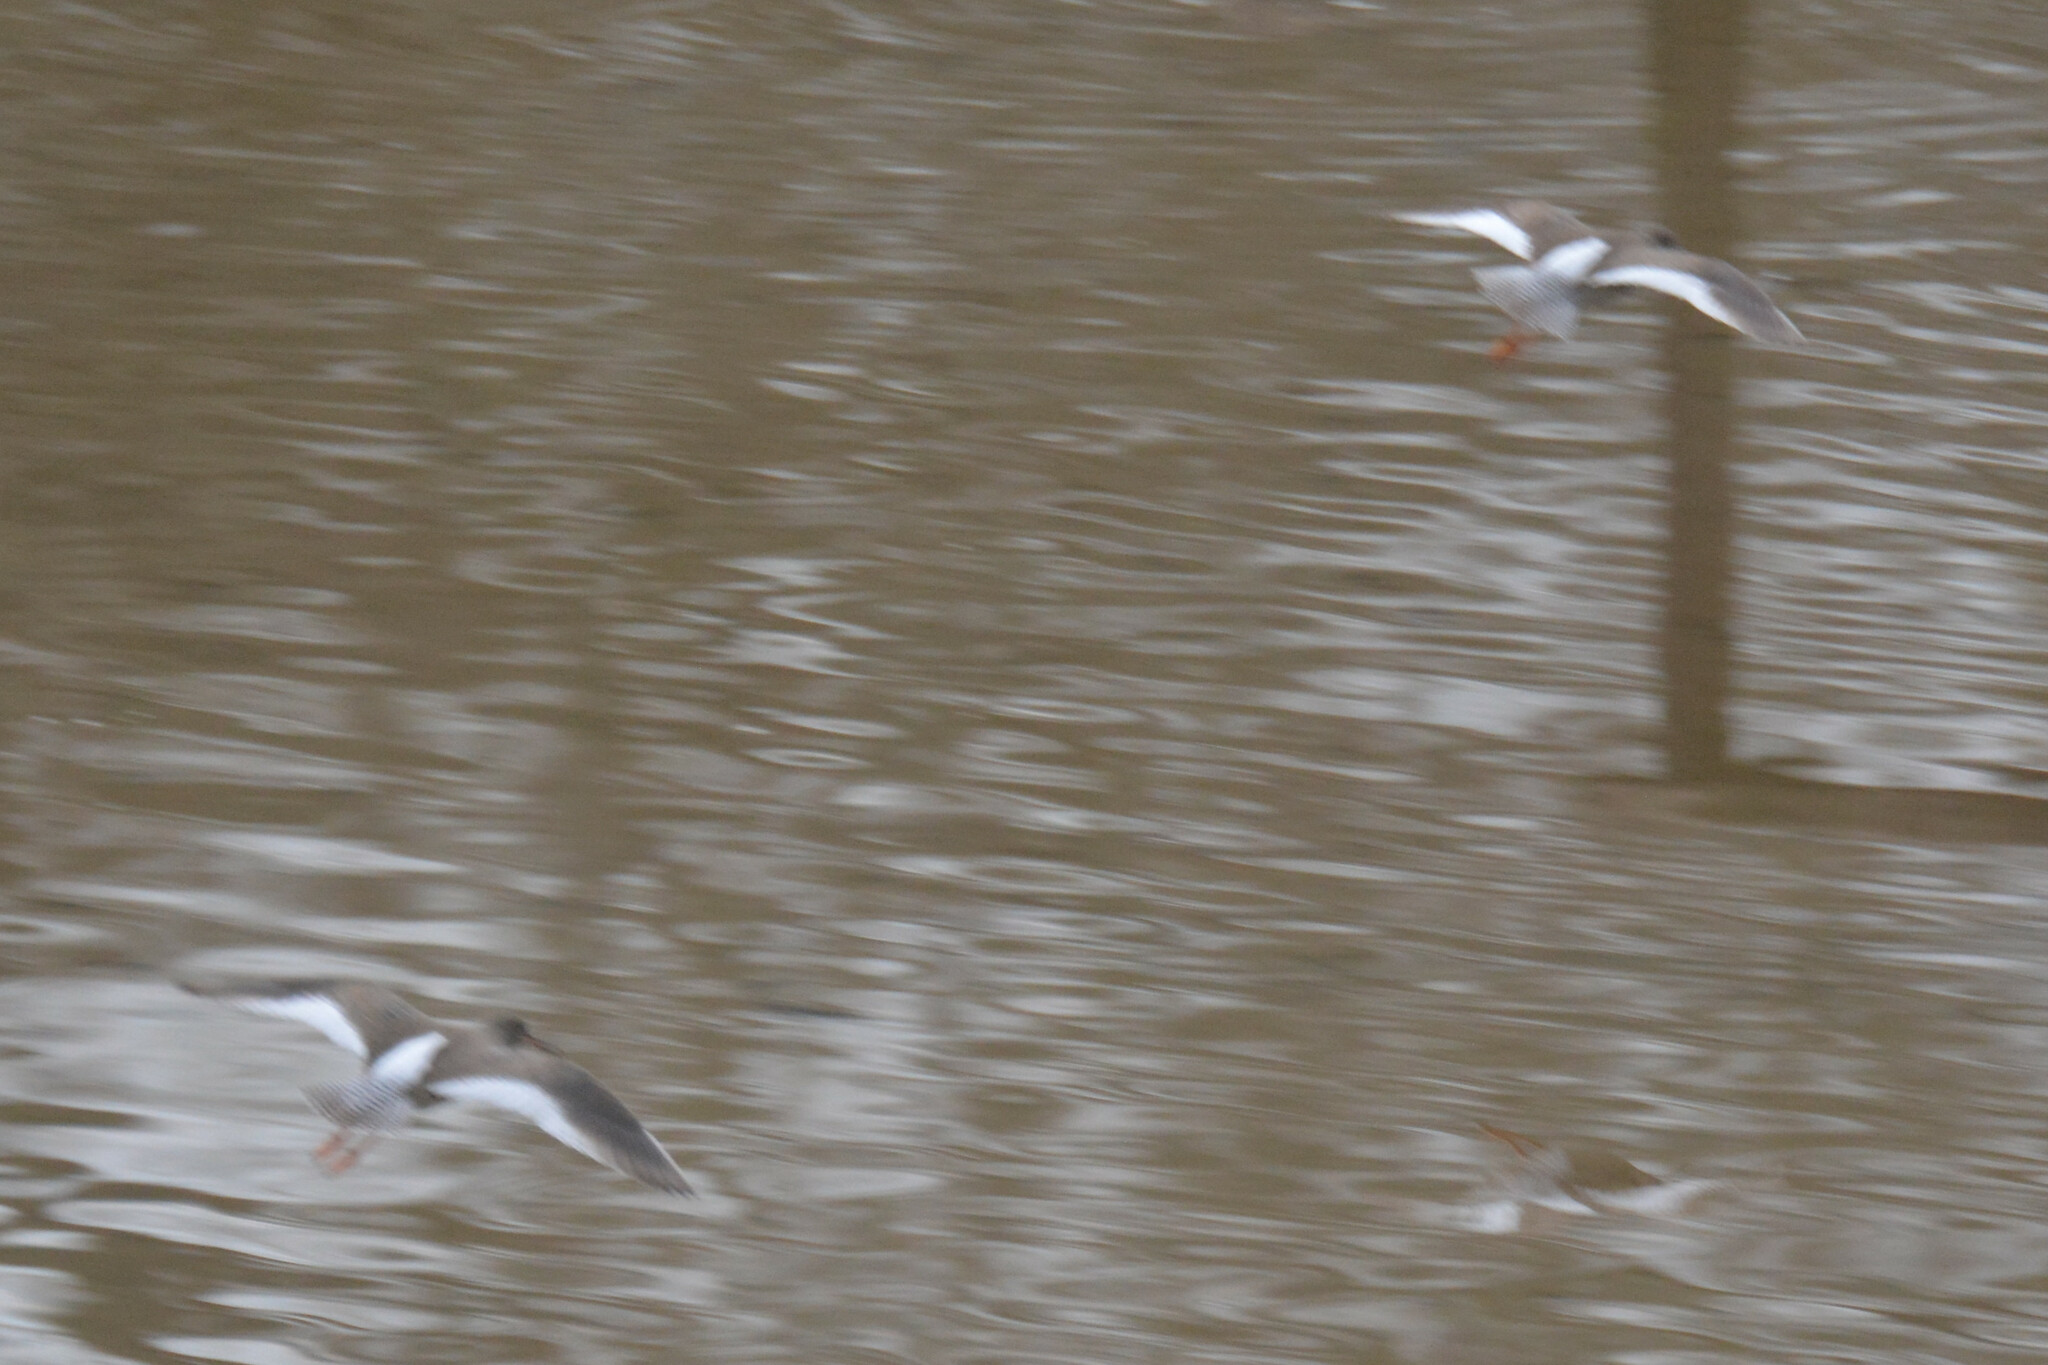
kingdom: Animalia
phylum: Chordata
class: Aves
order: Charadriiformes
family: Scolopacidae
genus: Tringa
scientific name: Tringa totanus
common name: Common redshank
